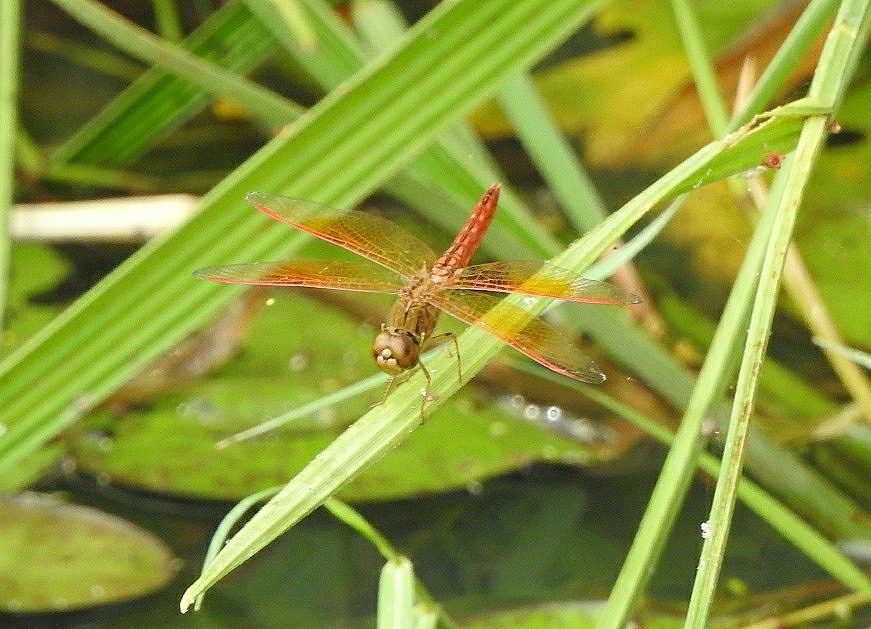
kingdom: Animalia
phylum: Arthropoda
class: Insecta
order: Odonata
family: Libellulidae
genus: Brachythemis
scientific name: Brachythemis contaminata
